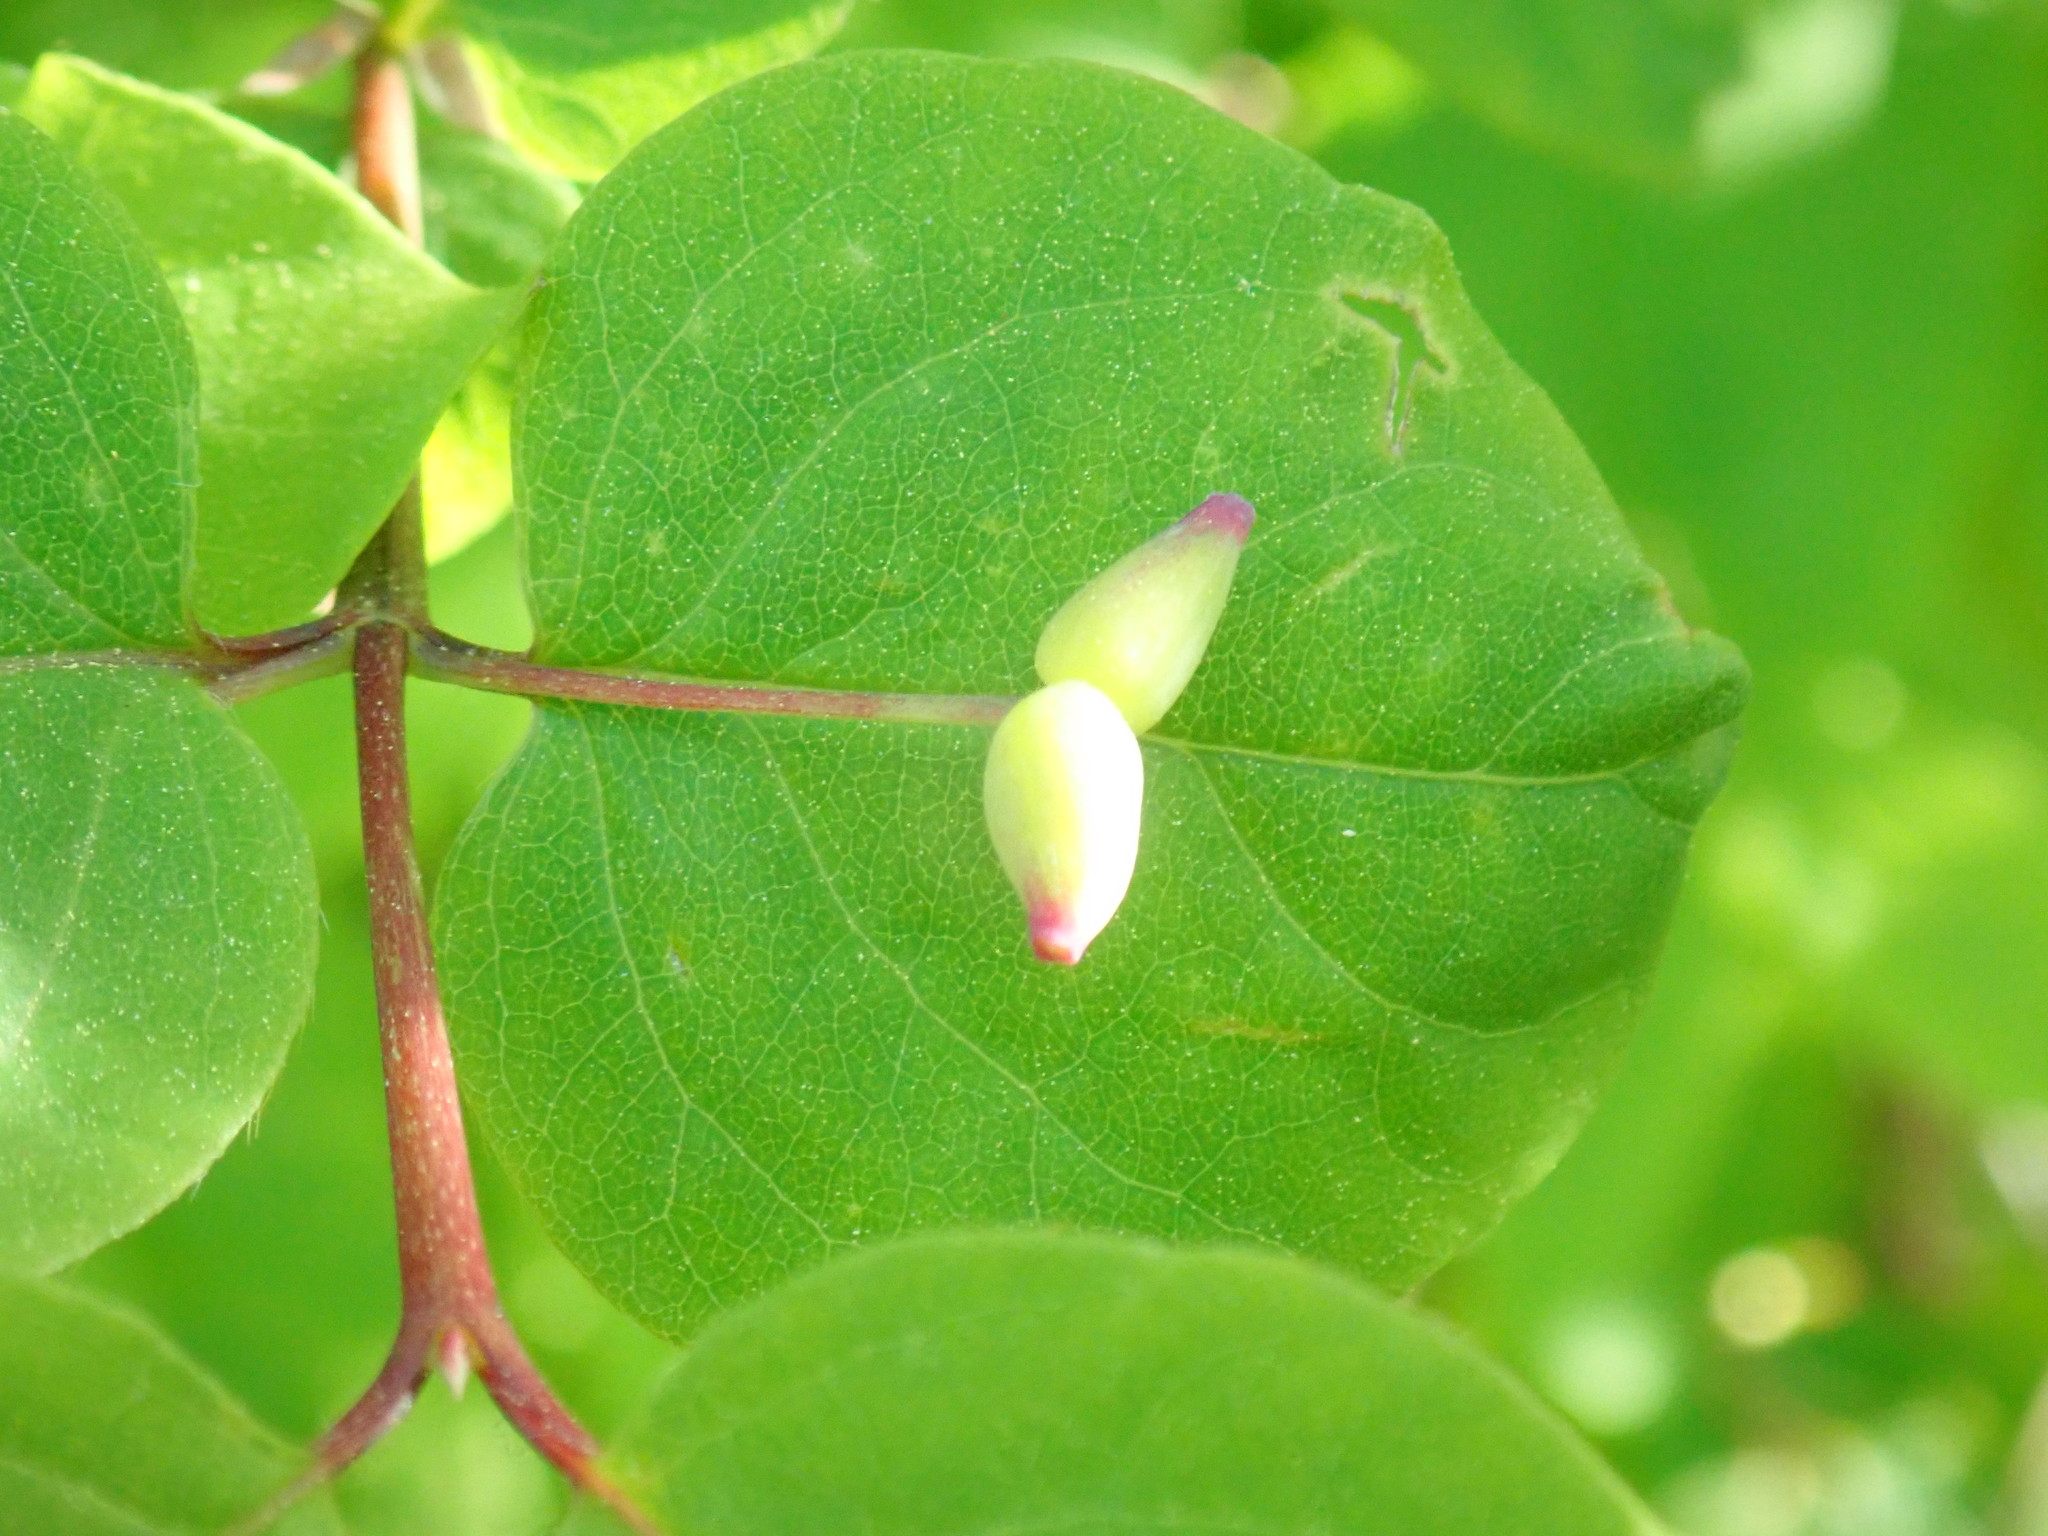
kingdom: Plantae
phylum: Tracheophyta
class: Magnoliopsida
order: Dipsacales
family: Caprifoliaceae
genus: Lonicera
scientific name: Lonicera canadensis
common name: American fly-honeysuckle
